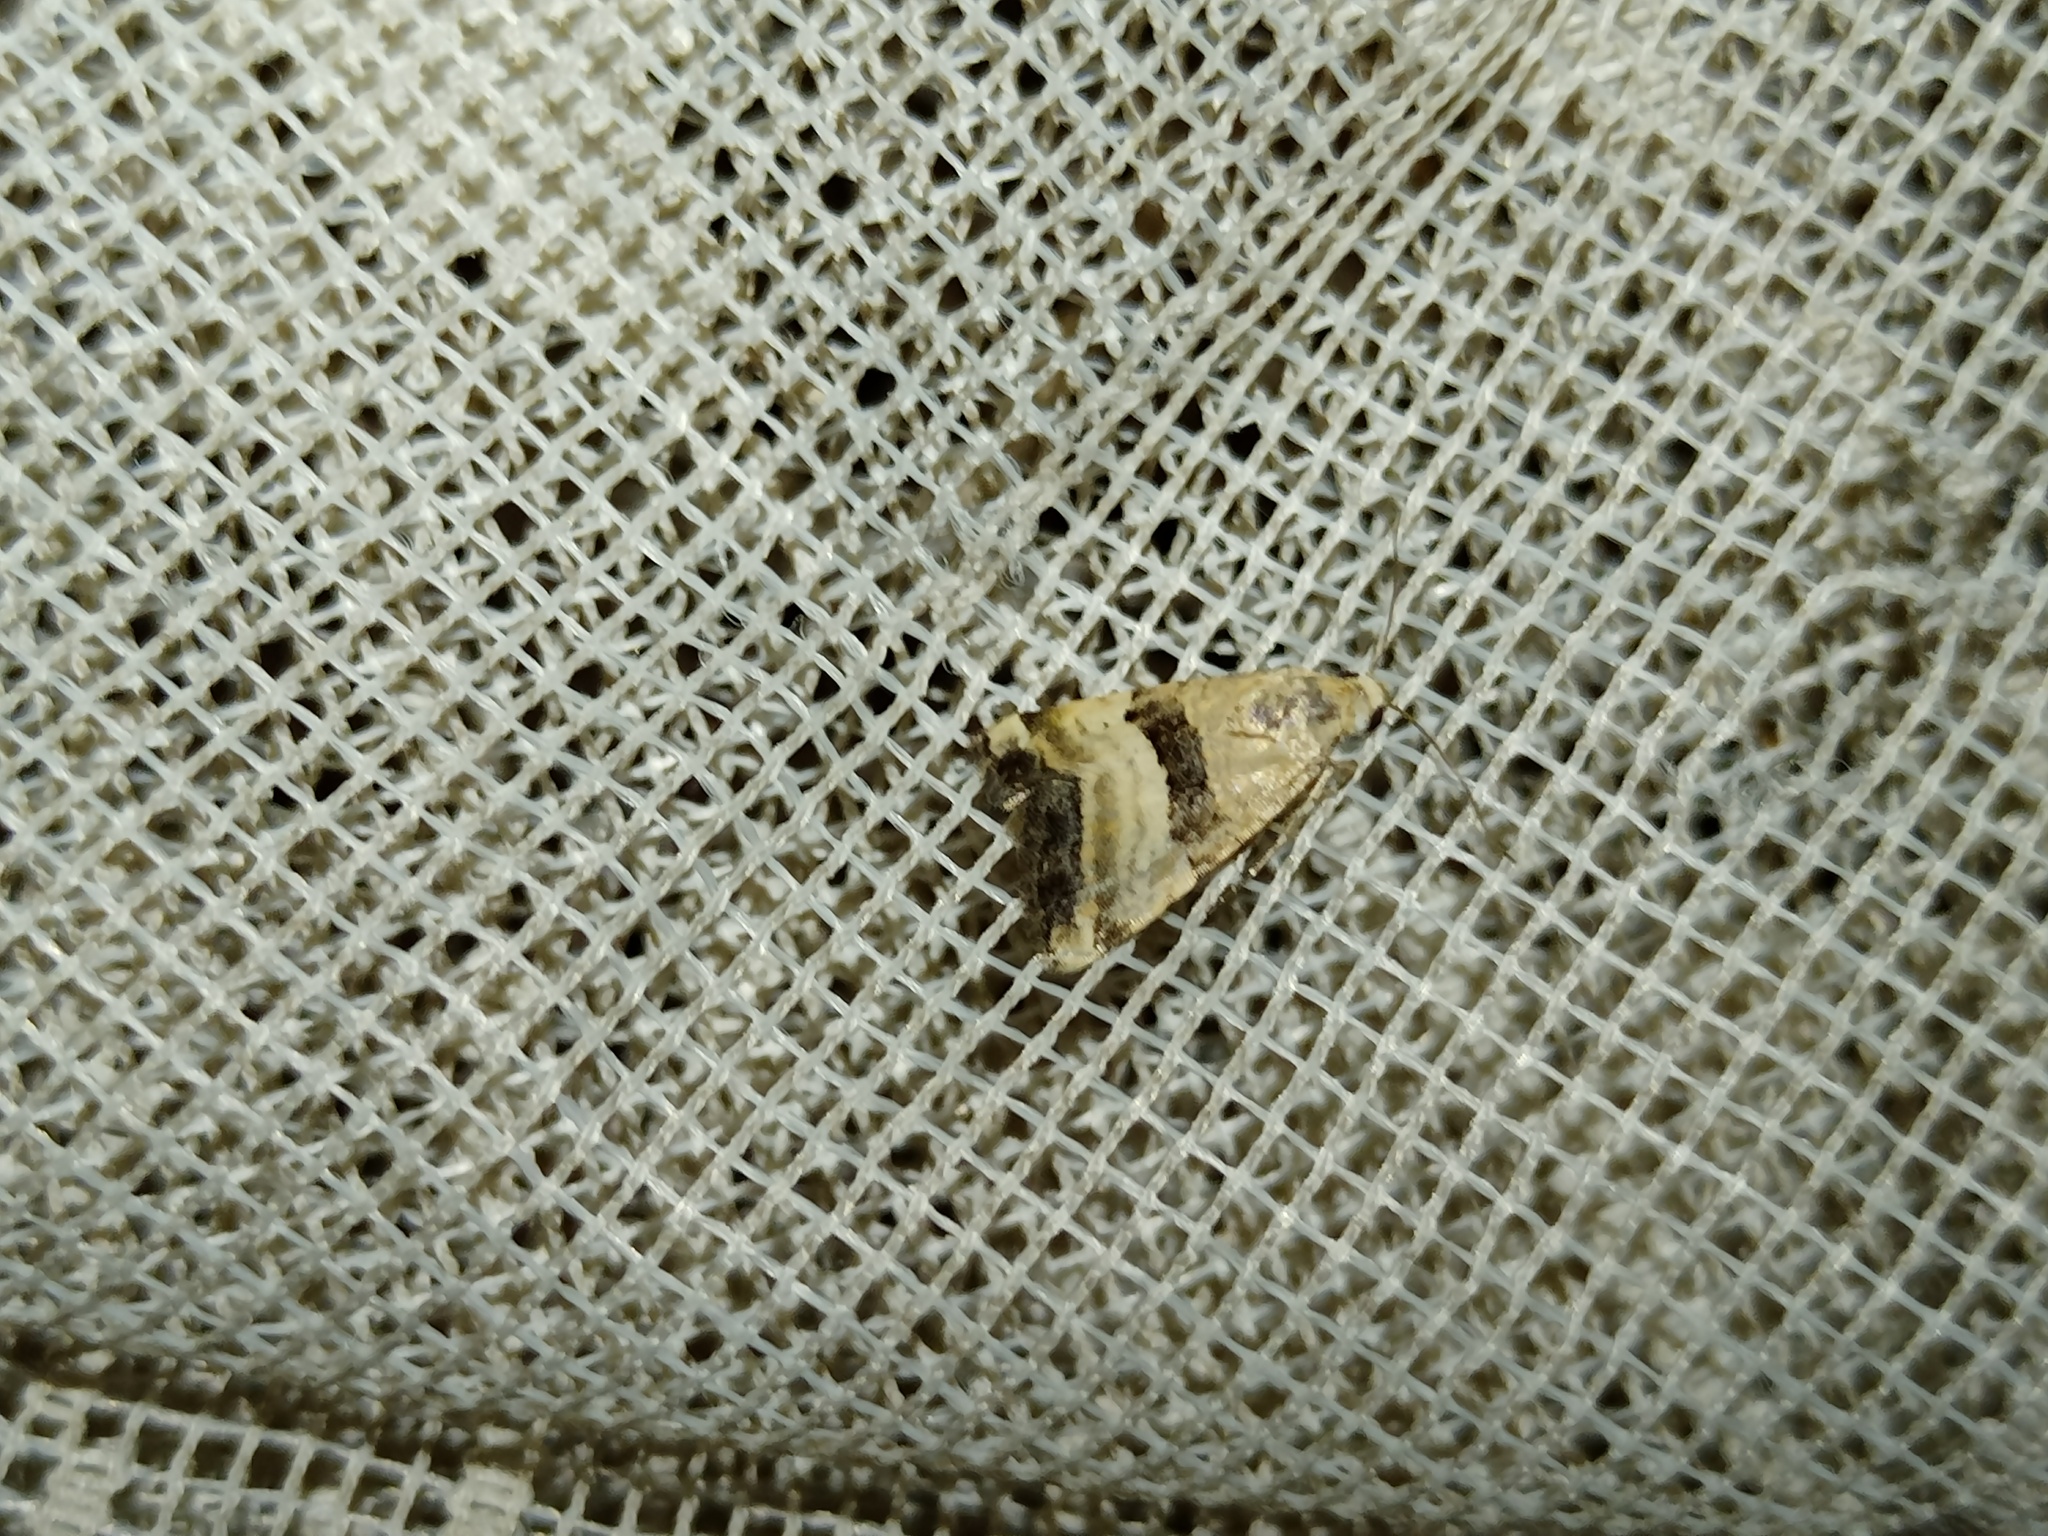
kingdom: Animalia
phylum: Arthropoda
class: Insecta
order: Lepidoptera
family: Noctuidae
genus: Pseudozarba
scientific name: Pseudozarba bipartita
